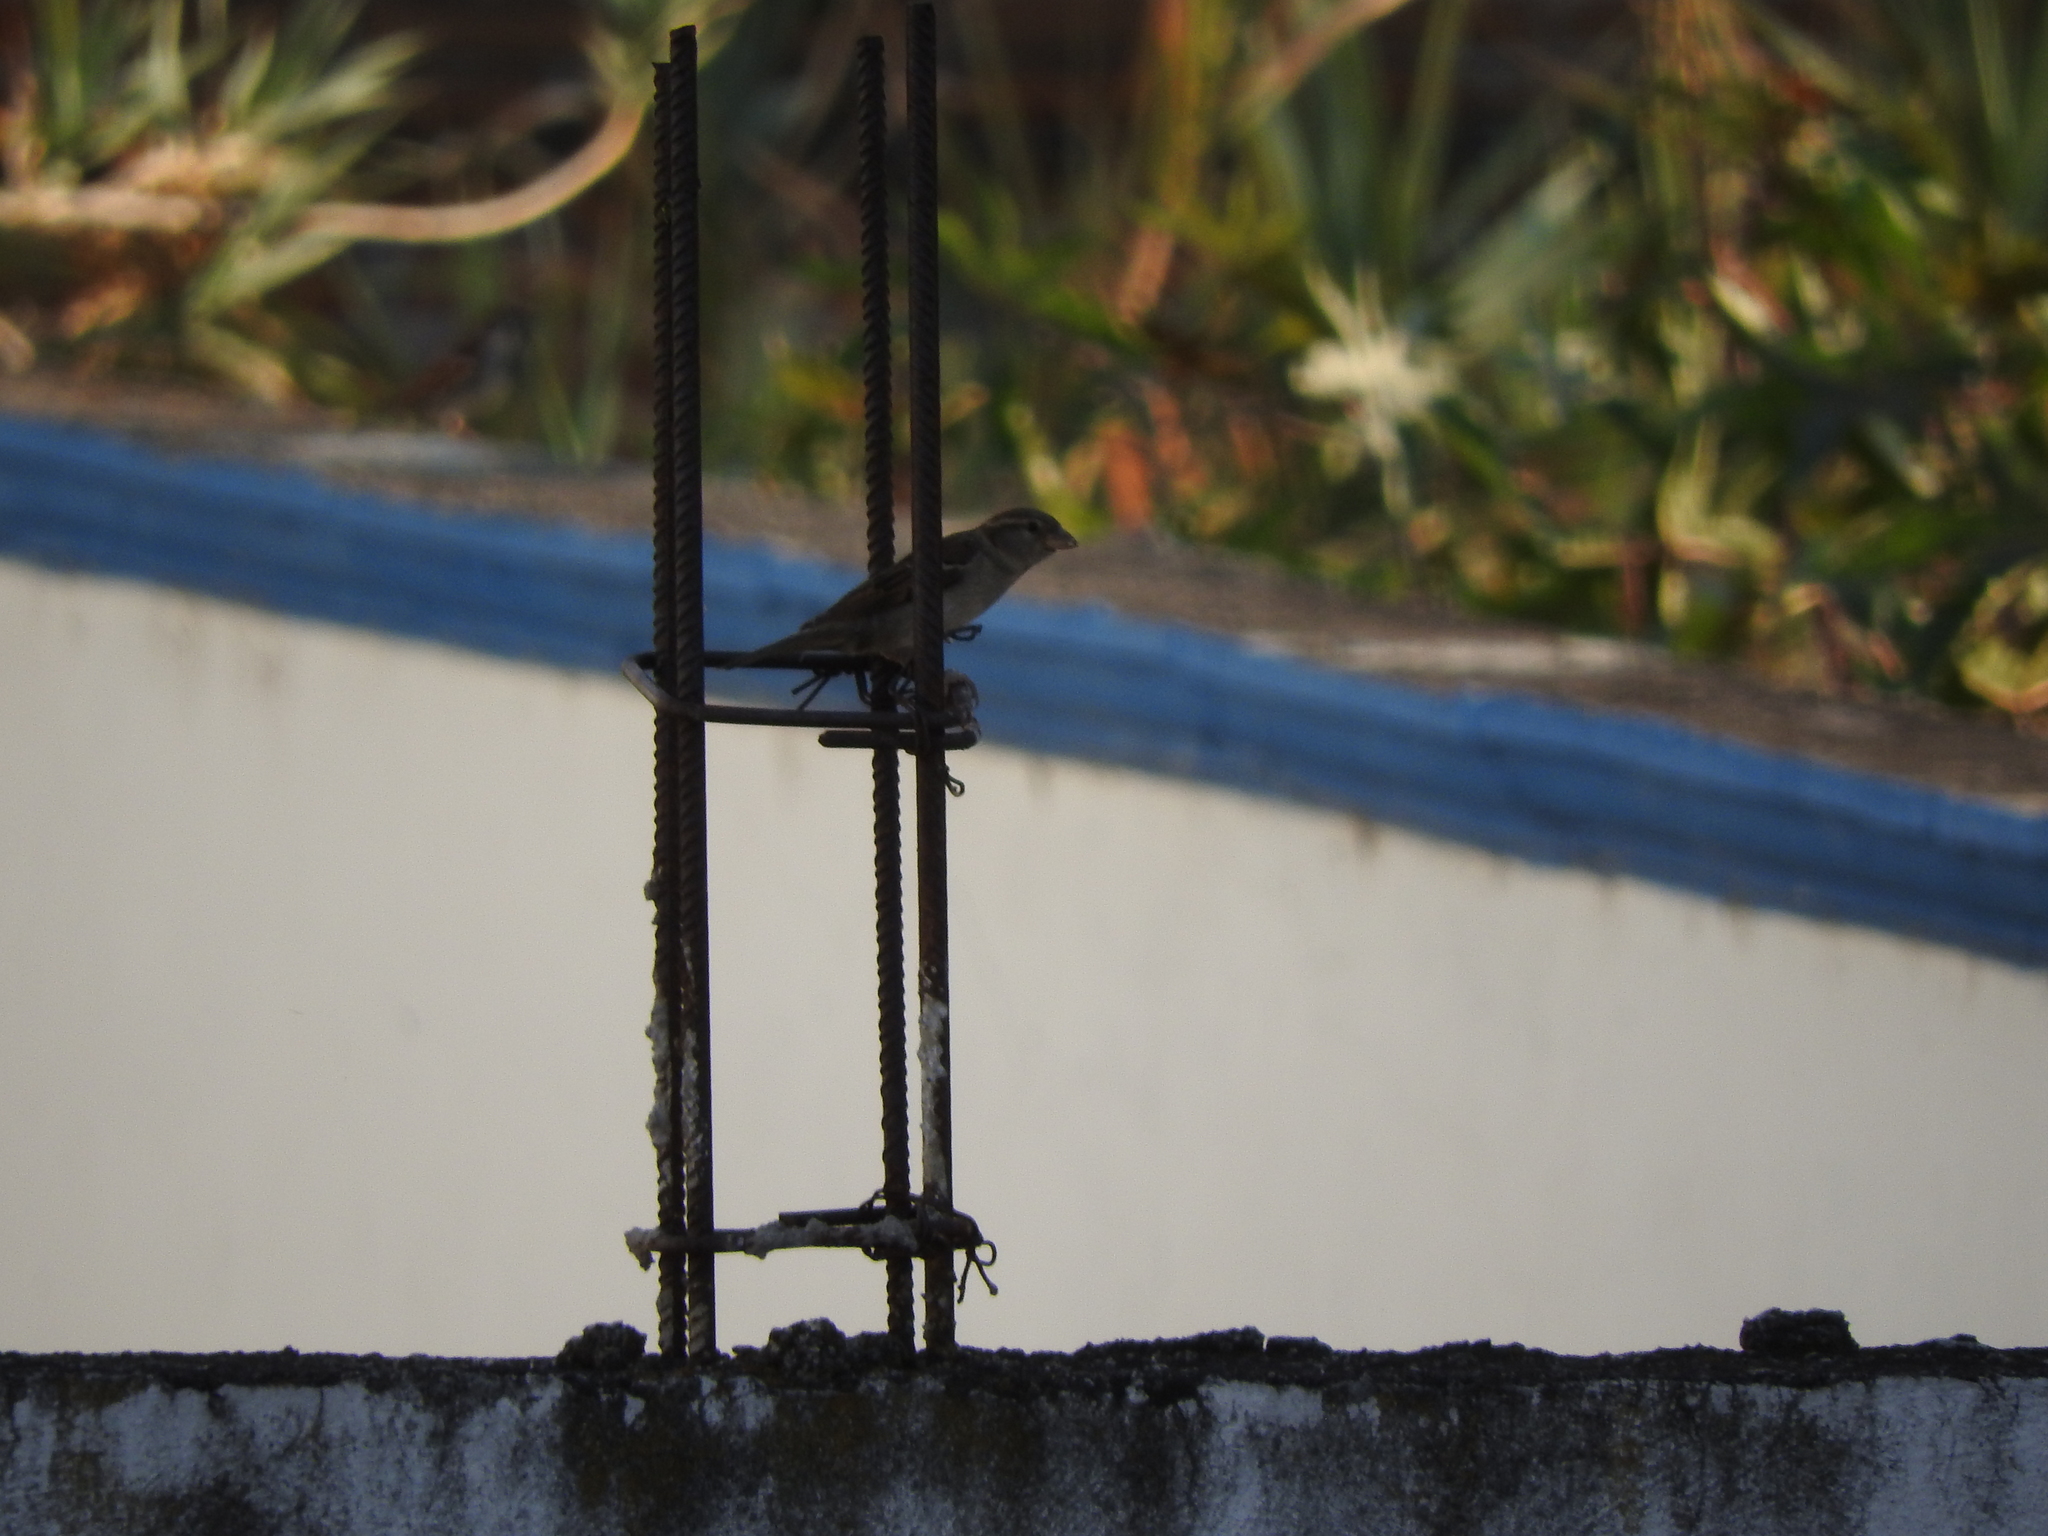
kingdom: Animalia
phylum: Chordata
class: Aves
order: Passeriformes
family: Passeridae
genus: Passer
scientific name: Passer domesticus
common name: House sparrow
